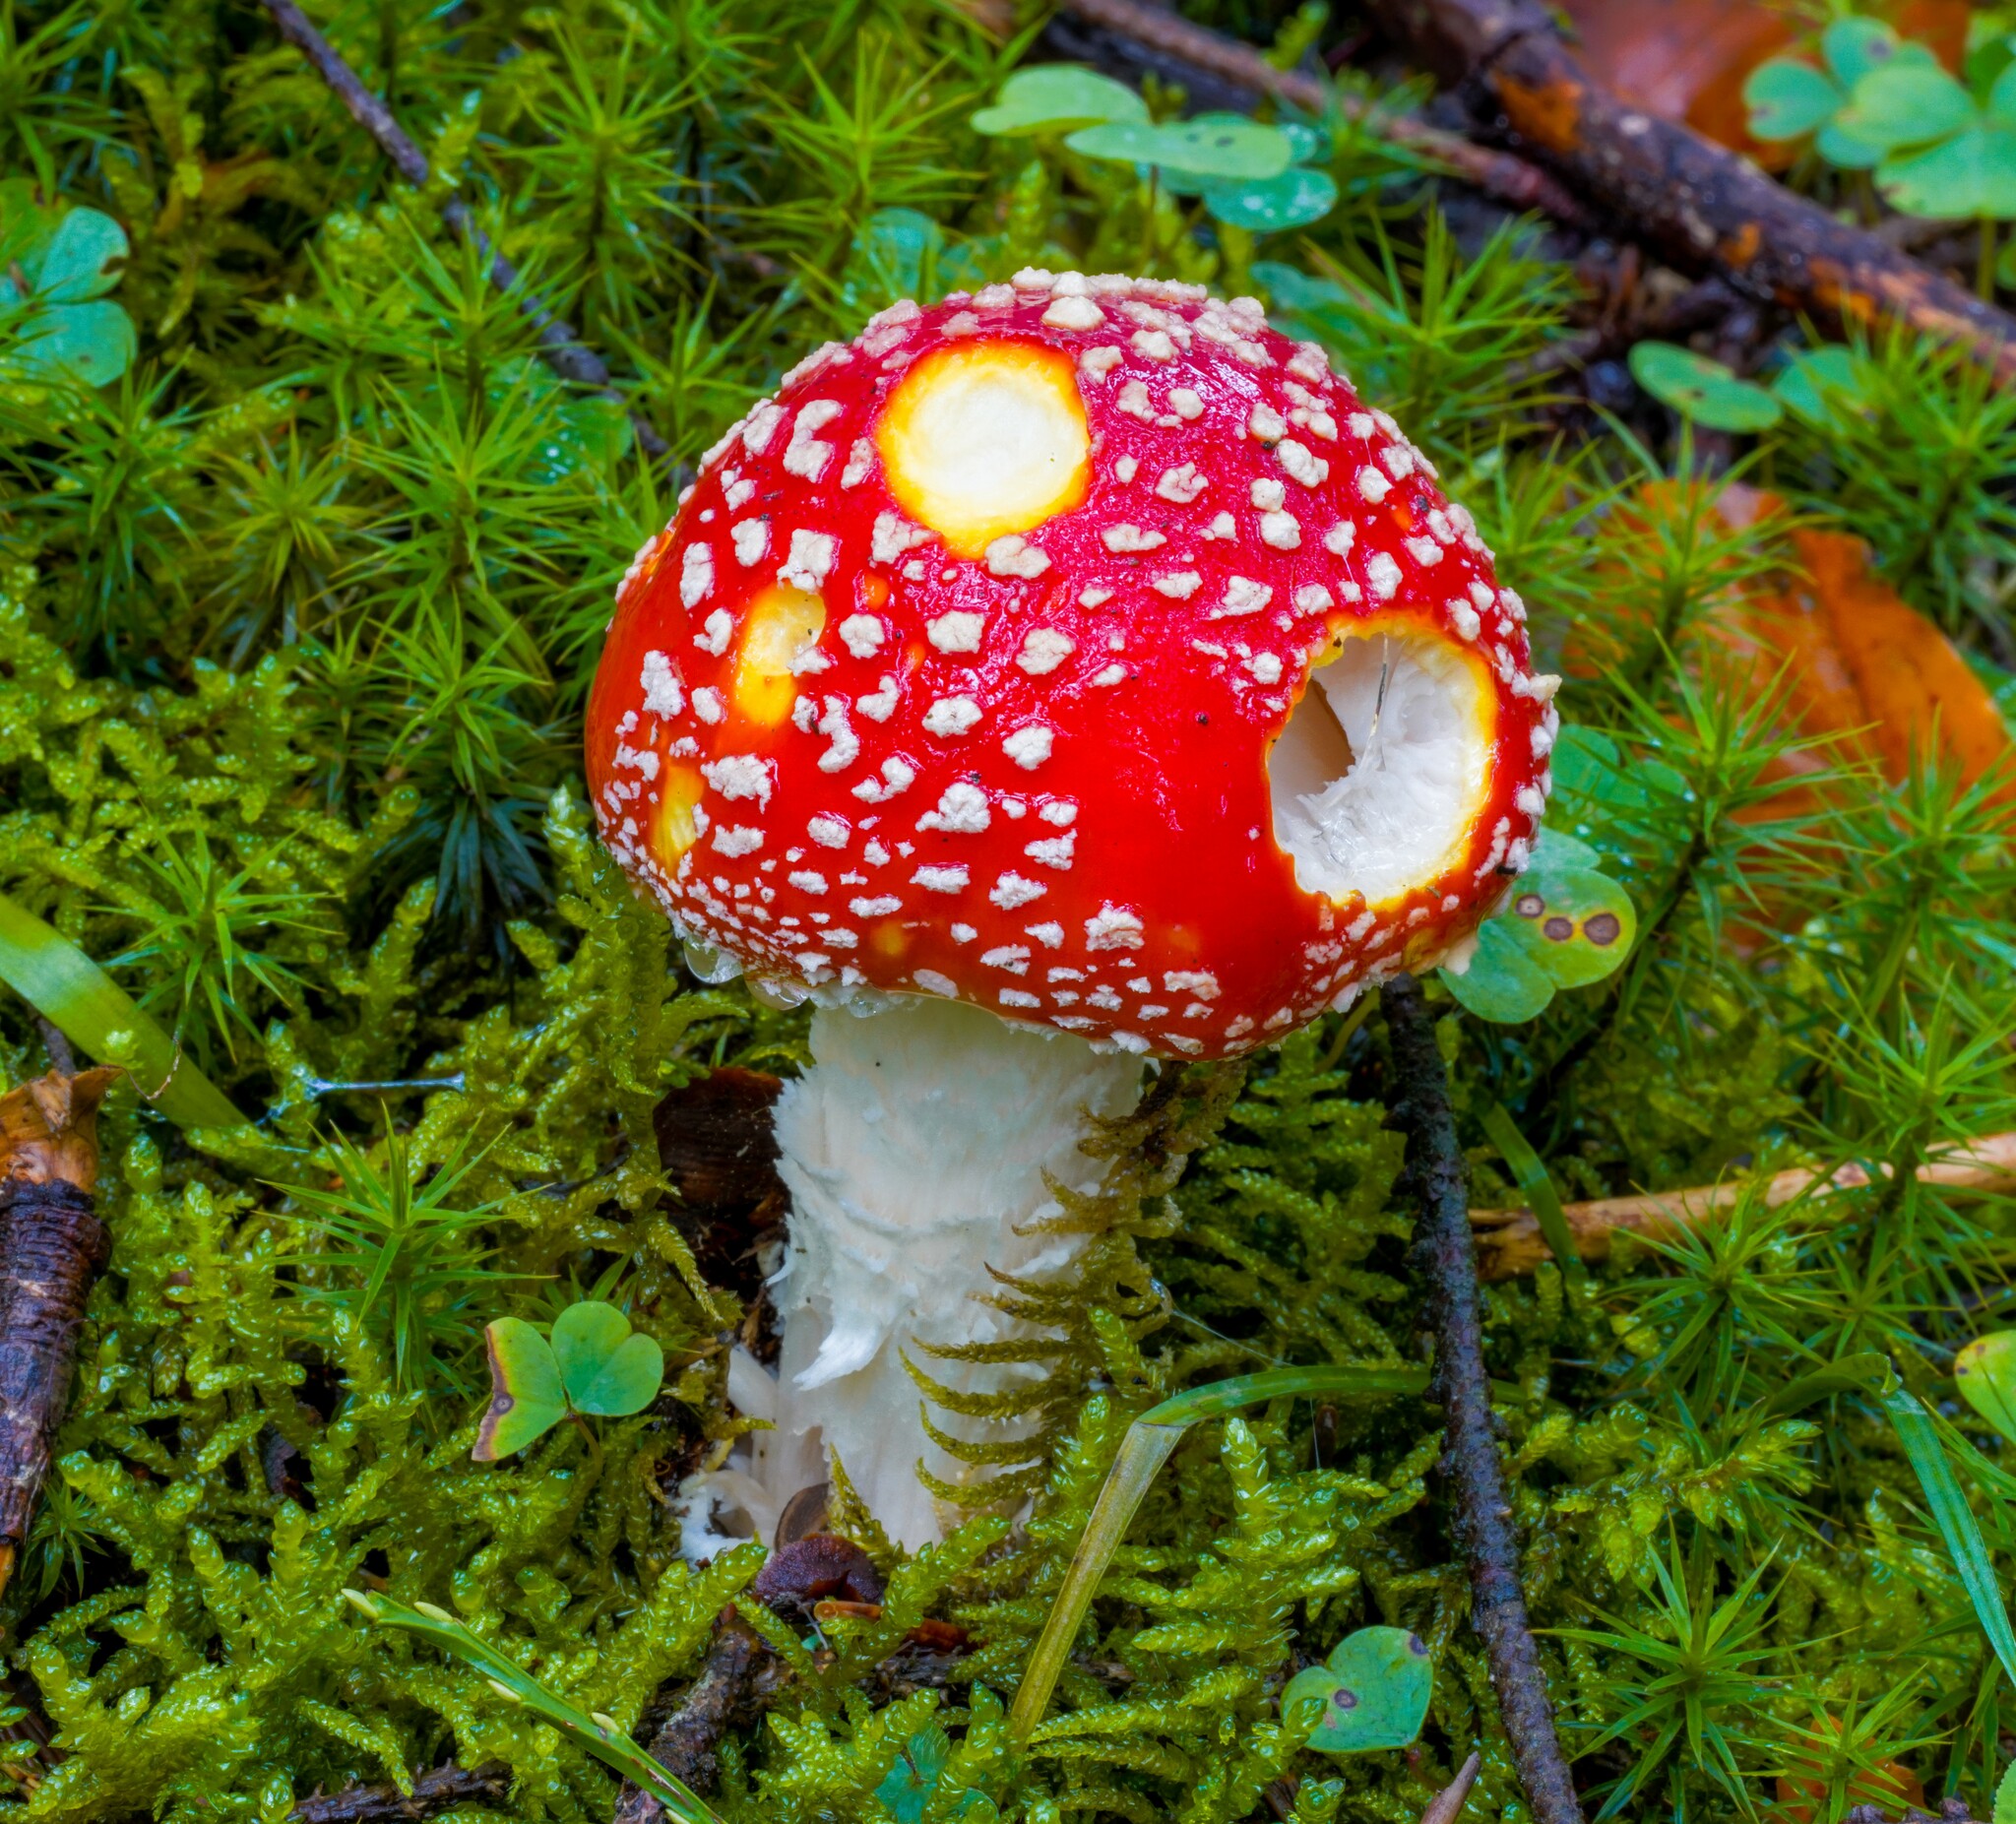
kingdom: Fungi
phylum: Basidiomycota
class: Agaricomycetes
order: Agaricales
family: Amanitaceae
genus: Amanita
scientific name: Amanita muscaria
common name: Fly agaric
